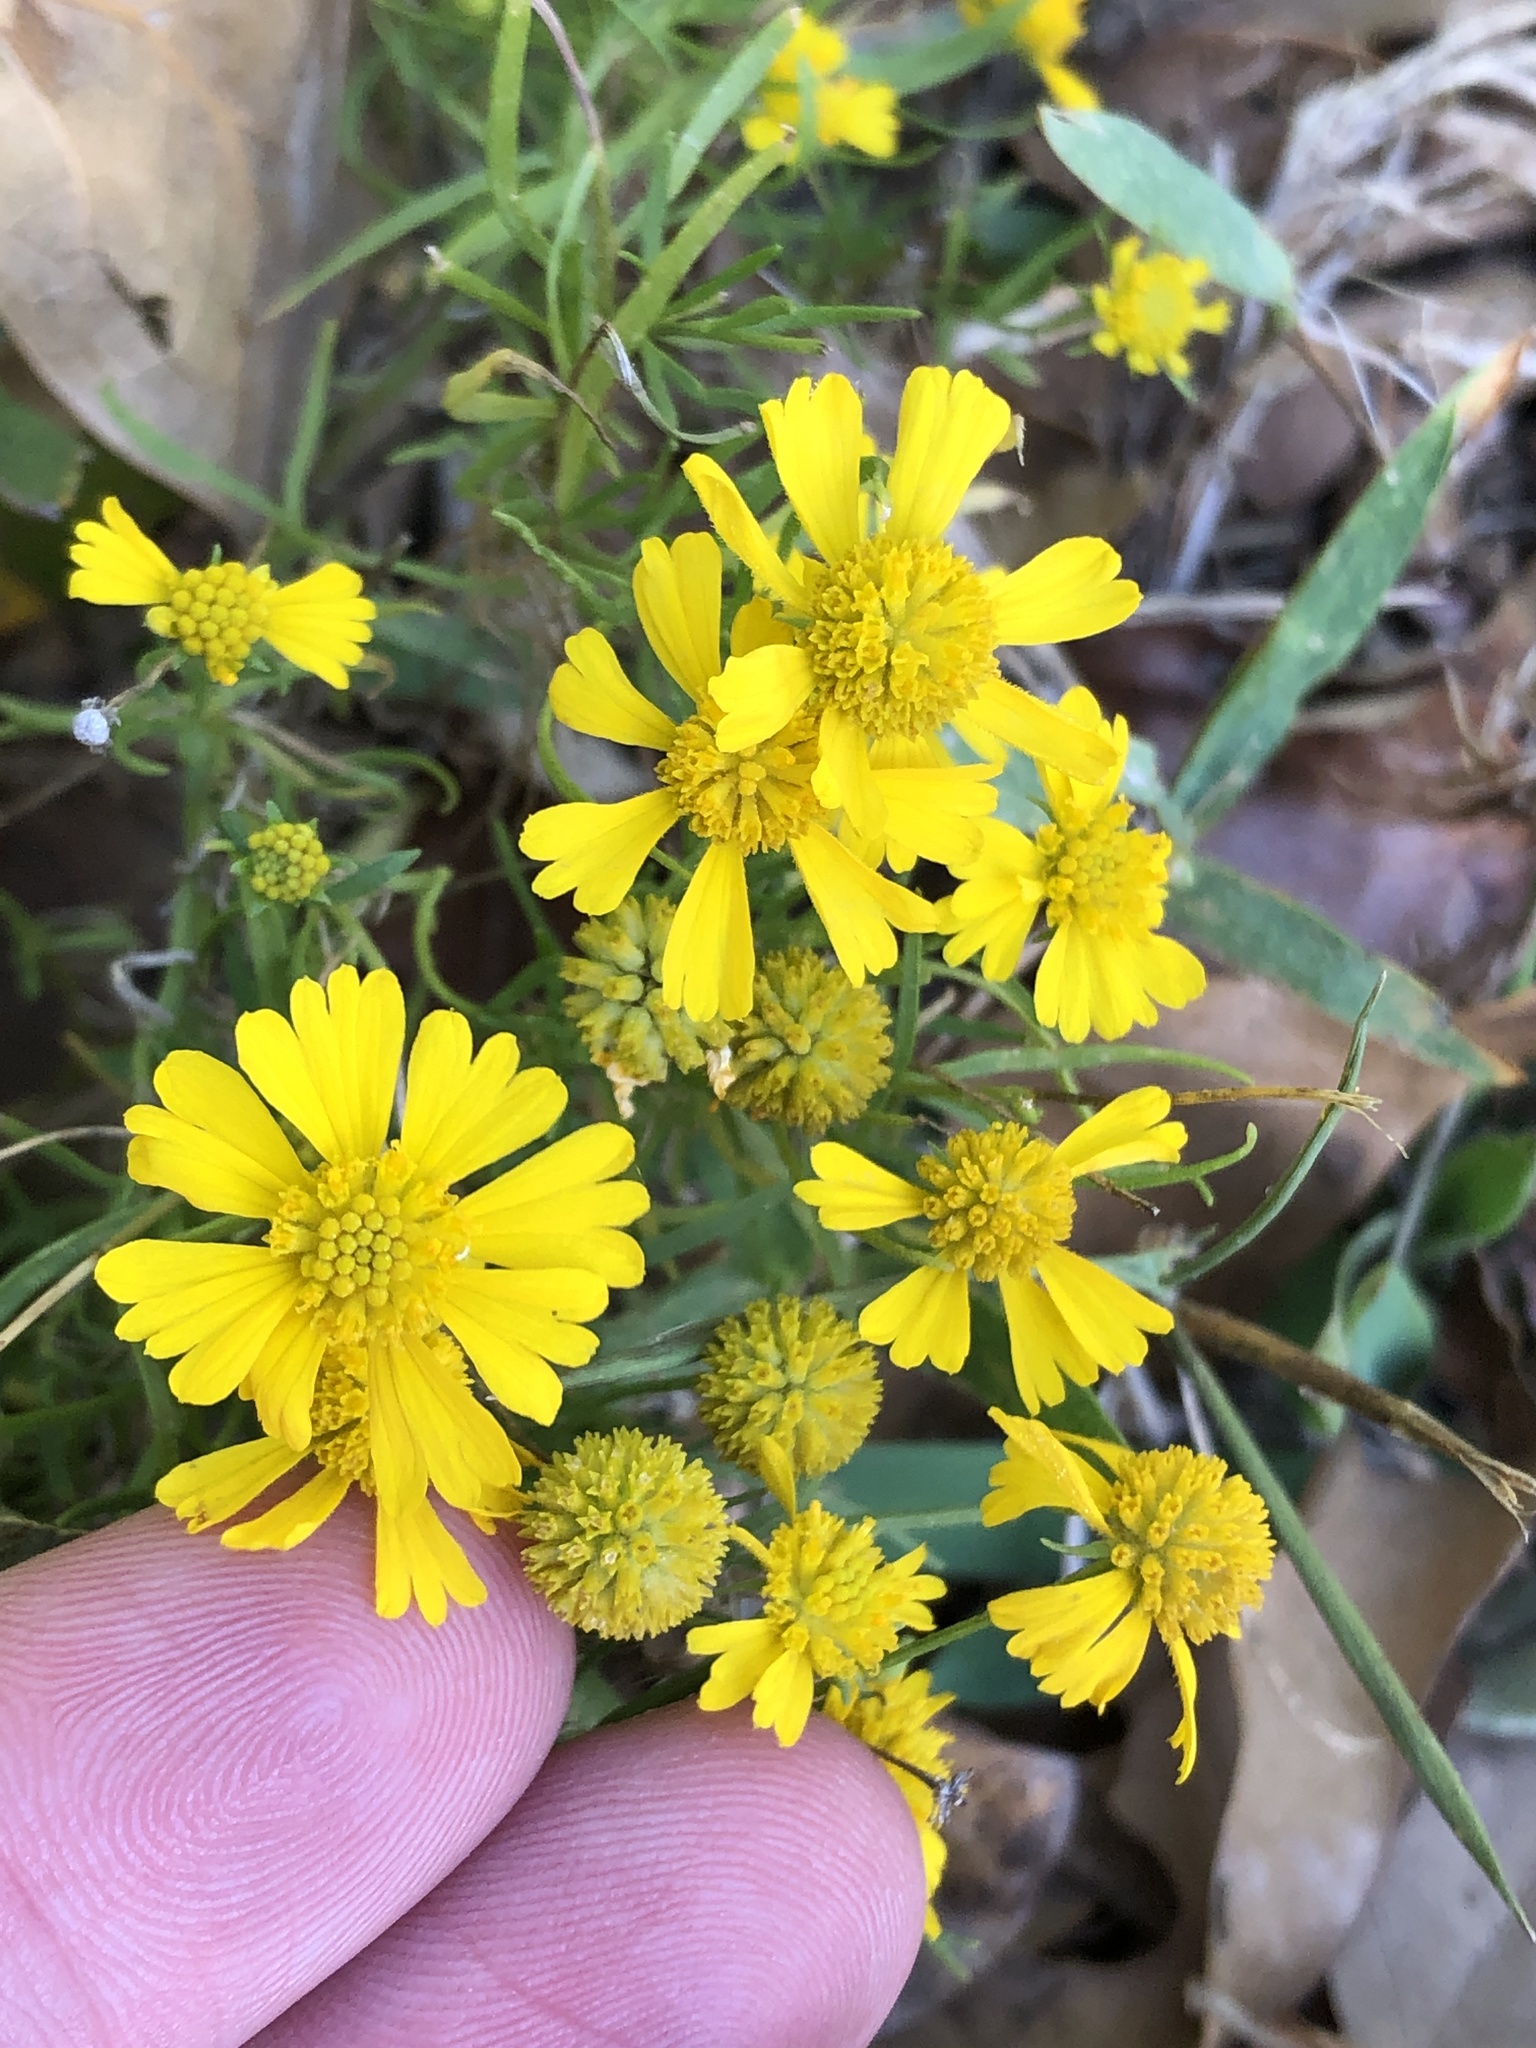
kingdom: Plantae
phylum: Tracheophyta
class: Magnoliopsida
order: Asterales
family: Asteraceae
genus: Helenium
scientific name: Helenium amarum
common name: Bitter sneezeweed
